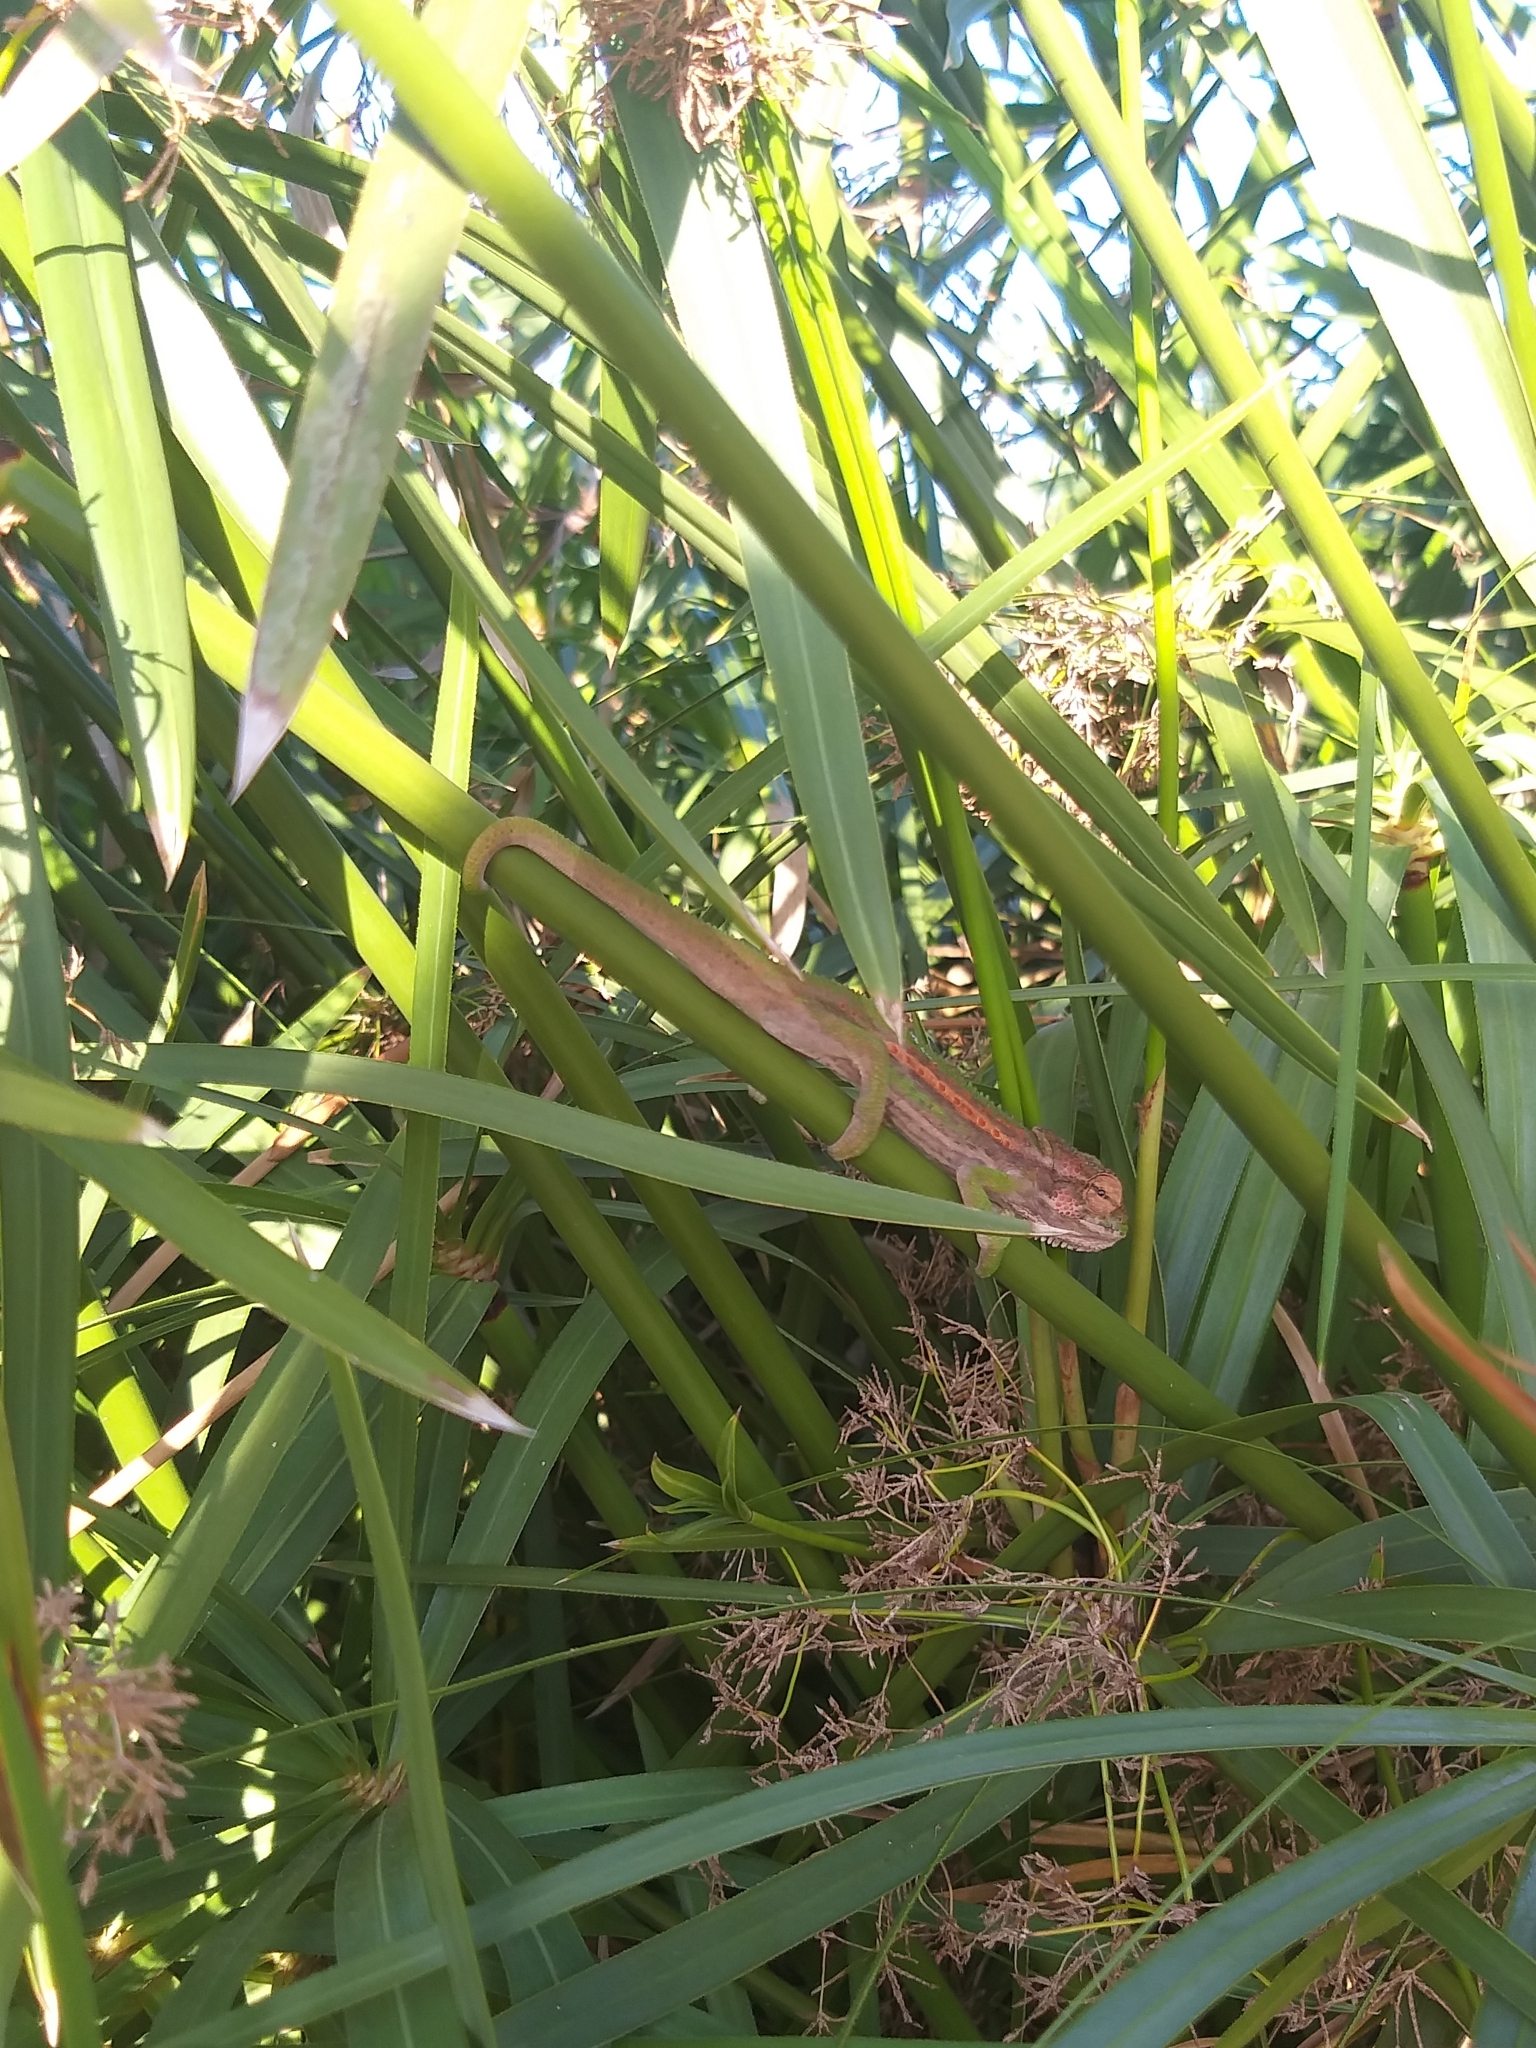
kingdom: Animalia
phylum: Chordata
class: Squamata
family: Chamaeleonidae
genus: Bradypodion
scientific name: Bradypodion pumilum
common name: Cape dwarf chameleon
